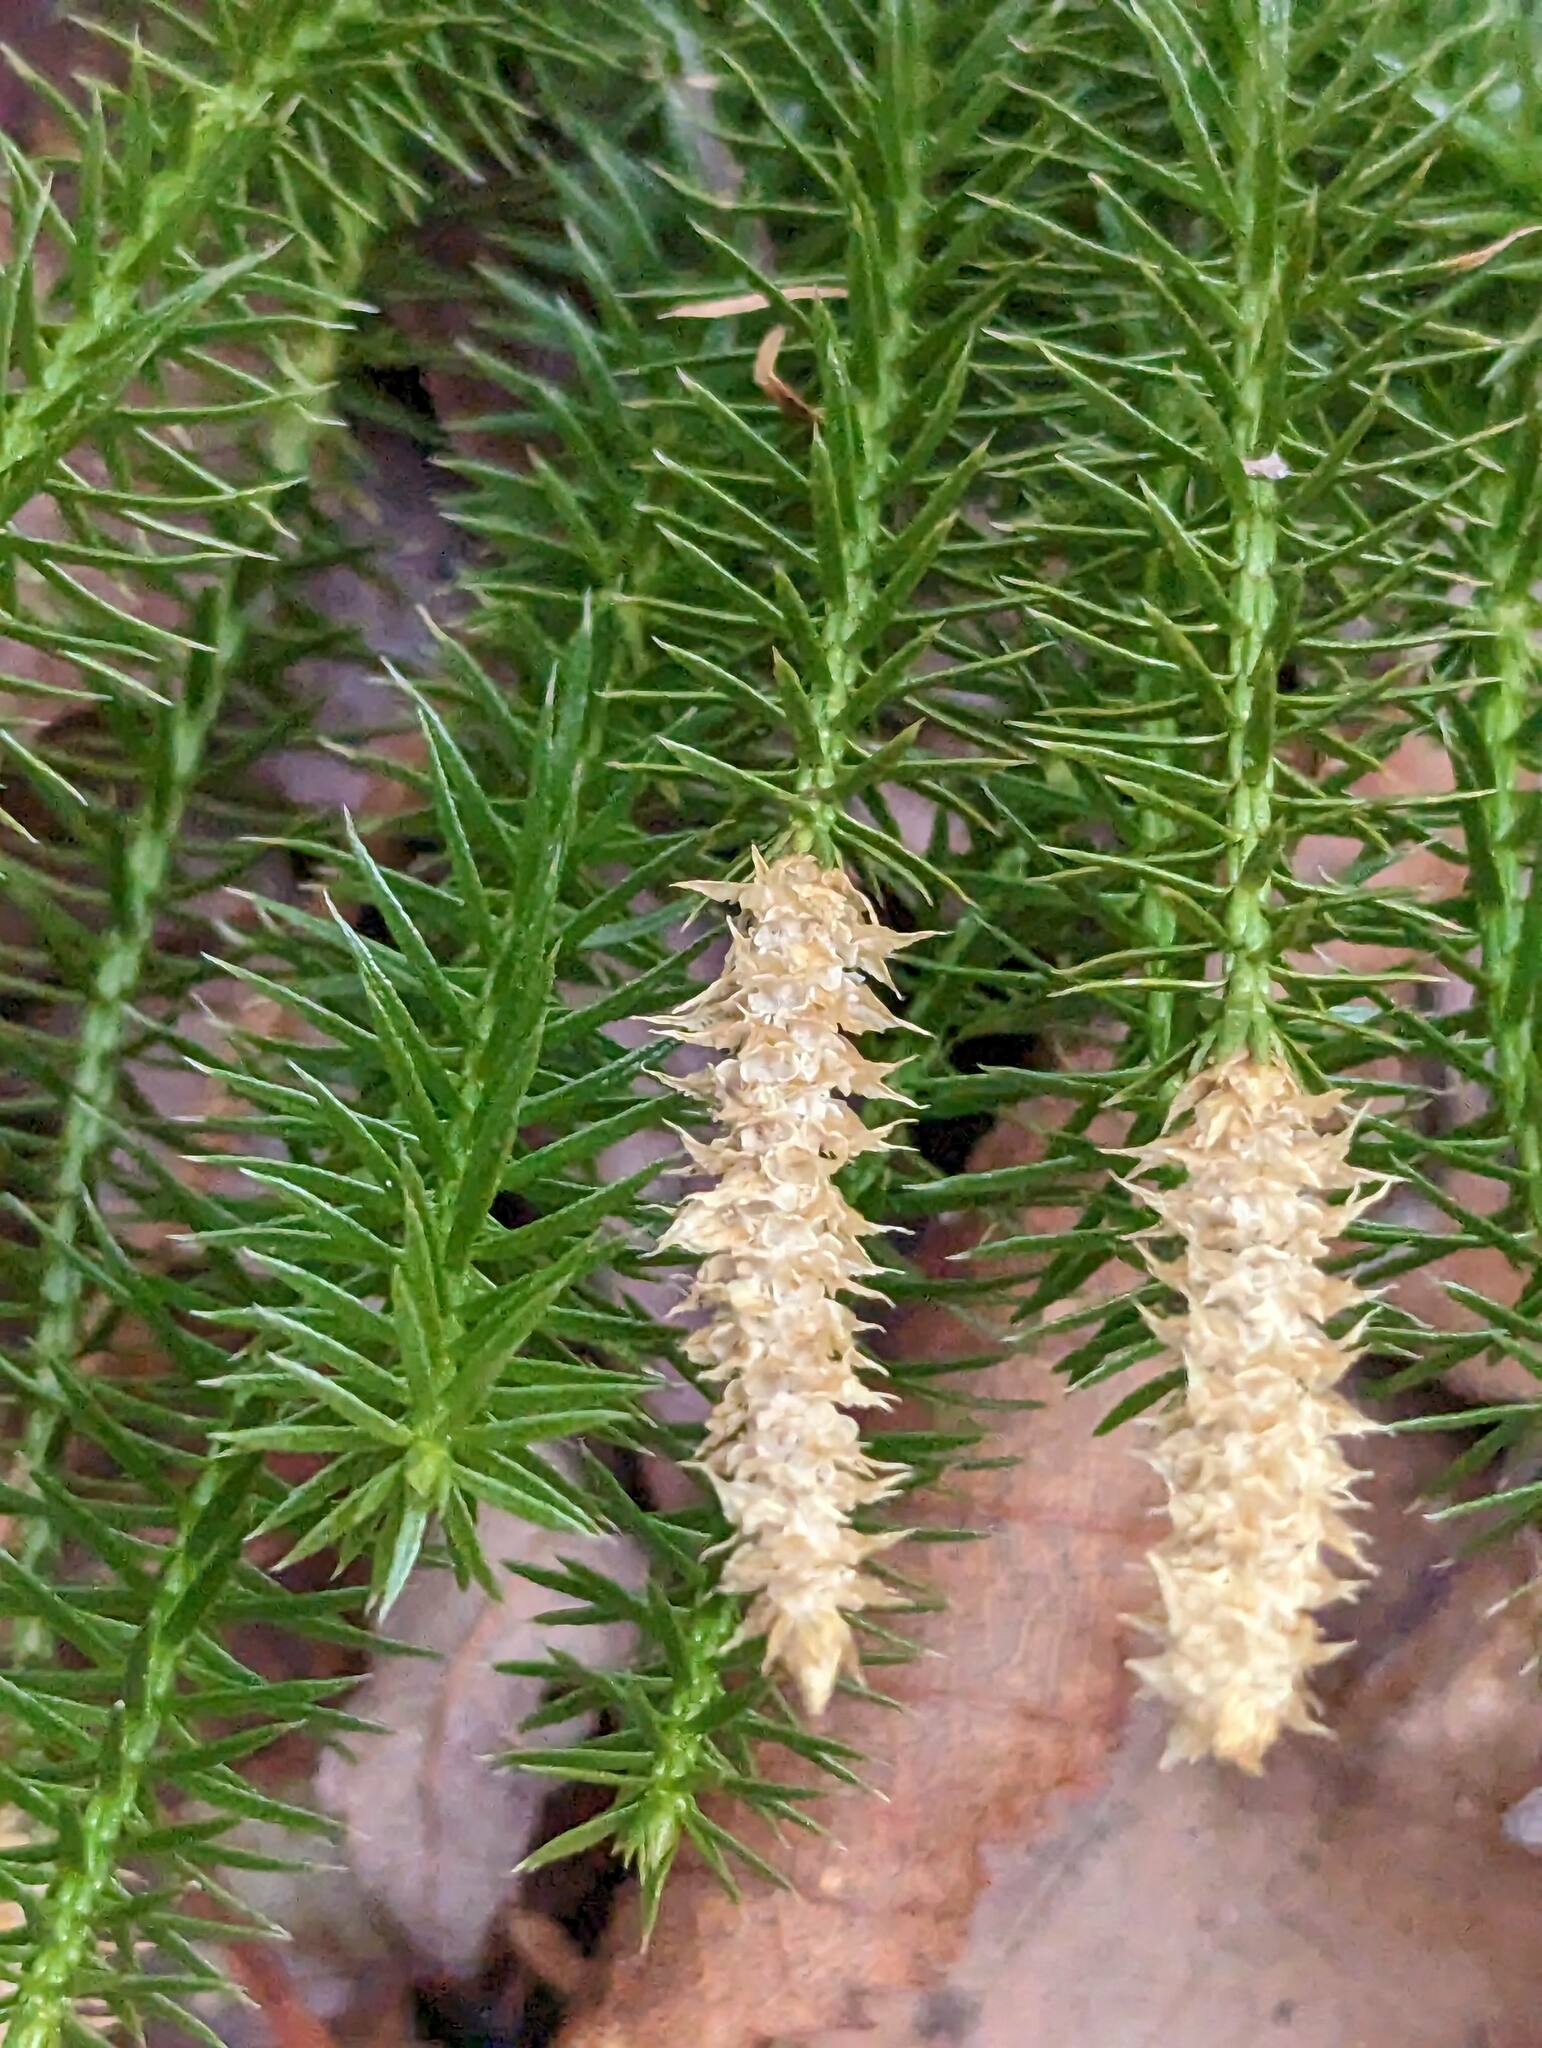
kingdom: Plantae
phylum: Tracheophyta
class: Lycopodiopsida
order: Lycopodiales
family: Lycopodiaceae
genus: Spinulum
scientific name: Spinulum annotinum
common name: Interrupted club-moss
